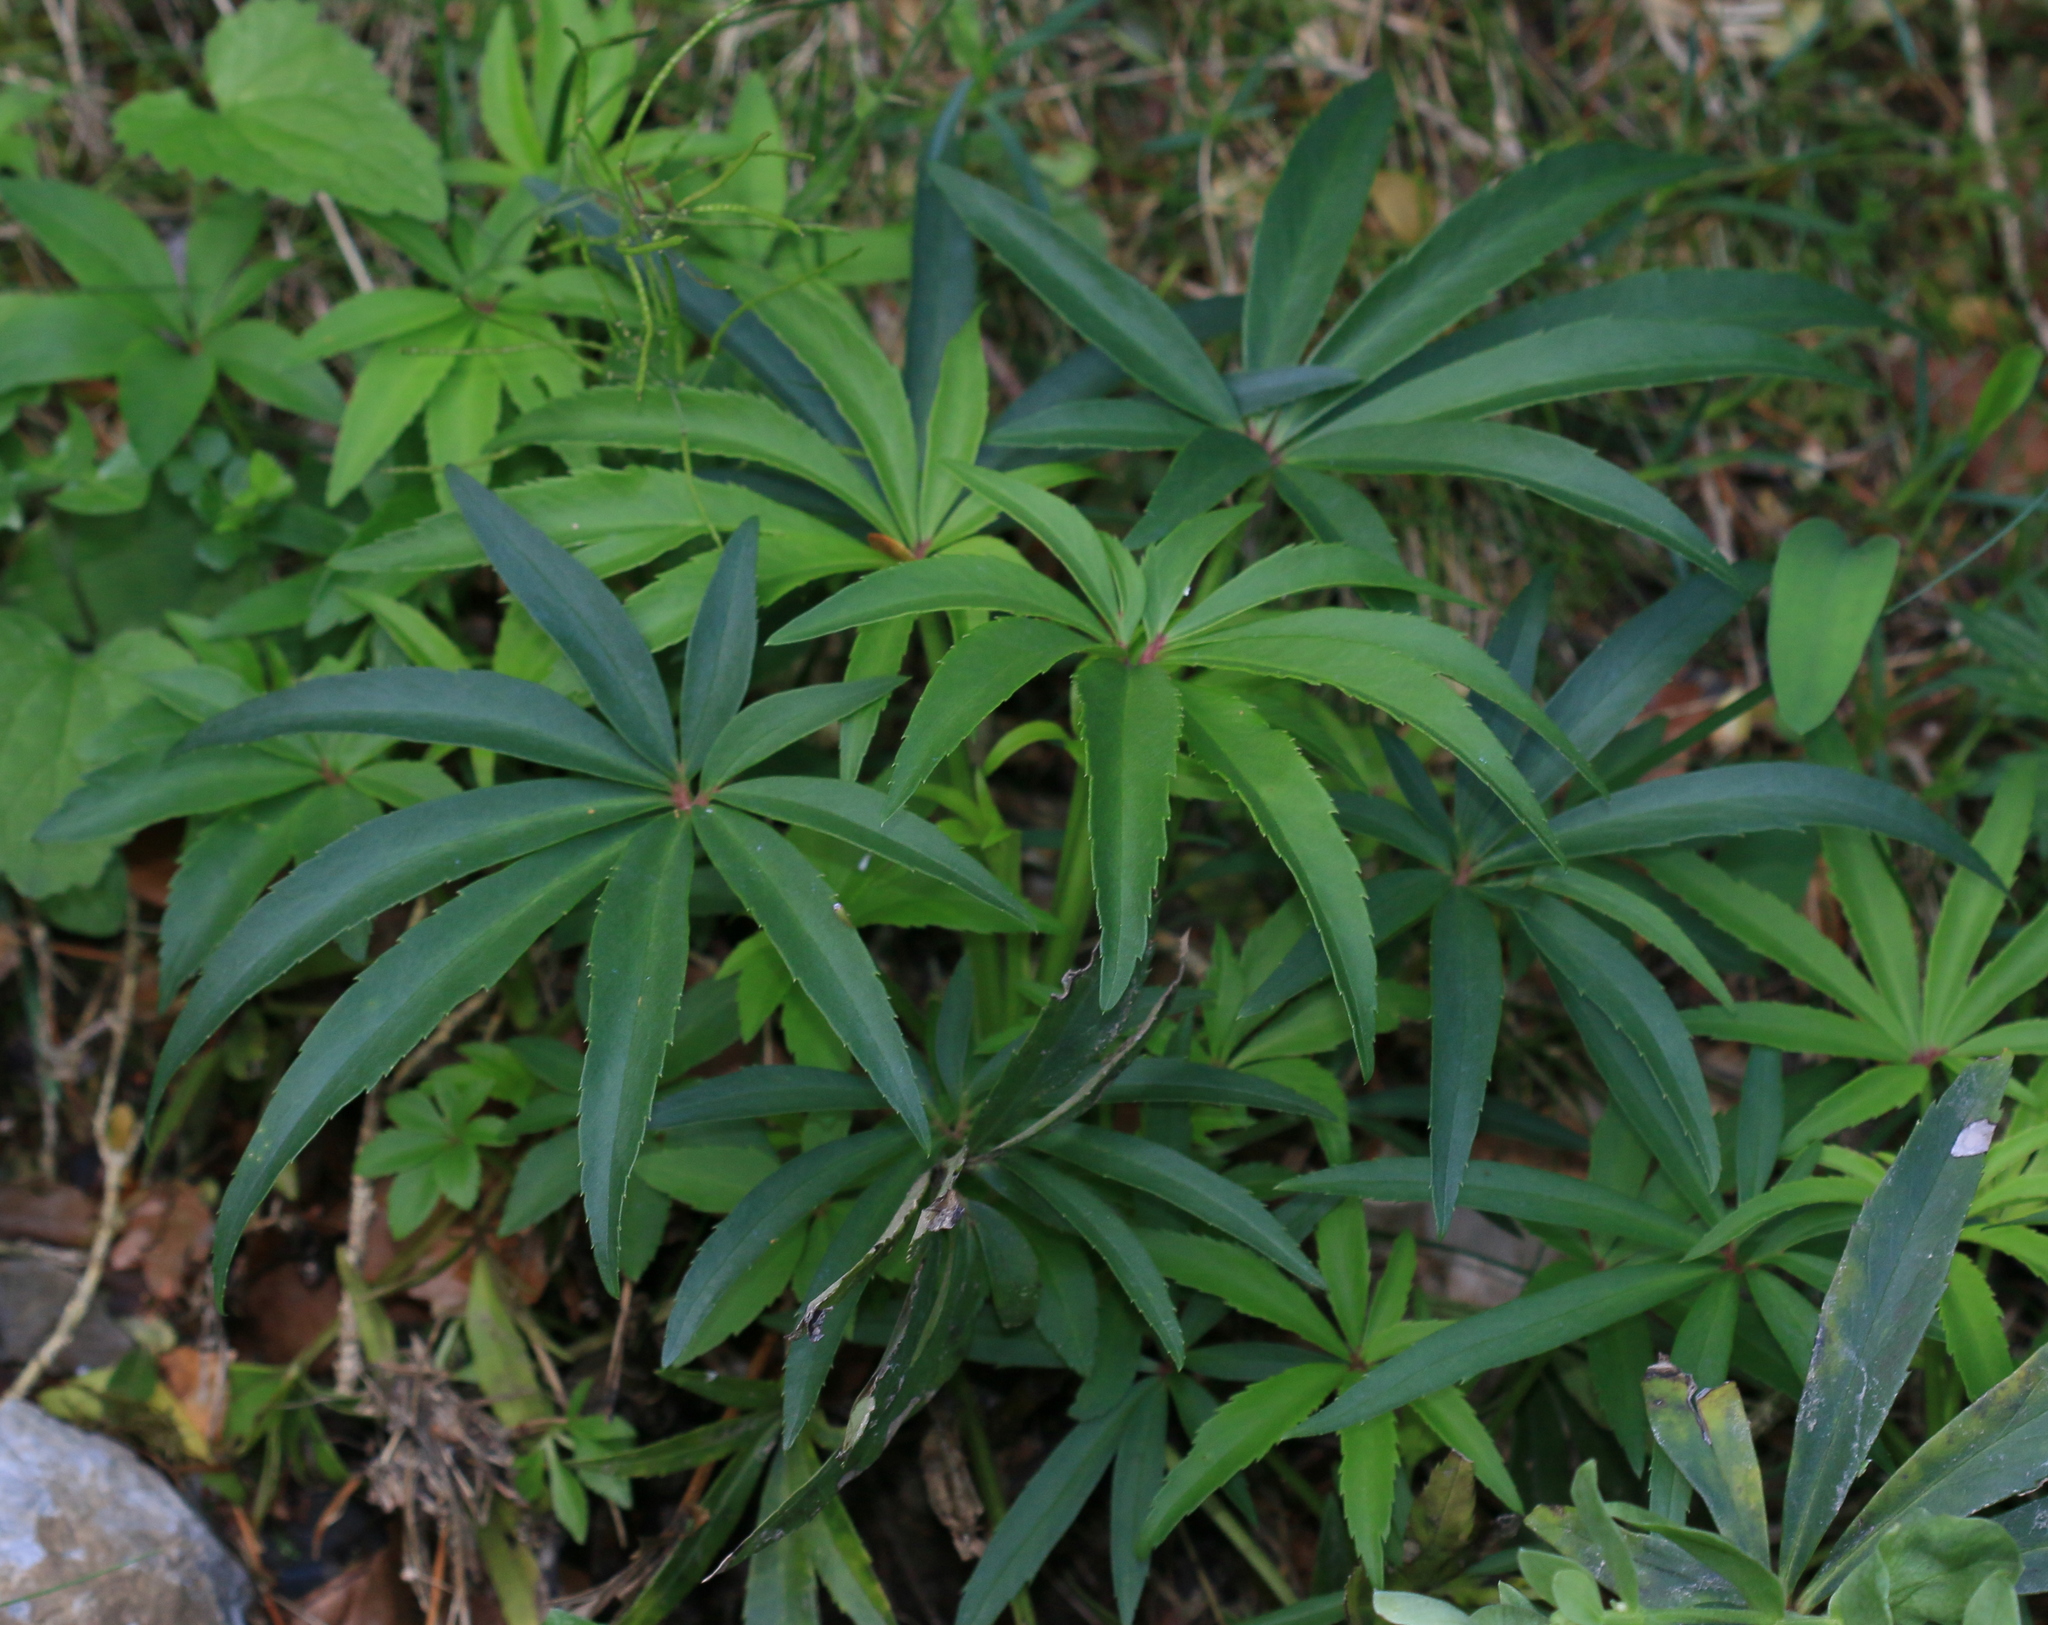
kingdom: Plantae
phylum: Tracheophyta
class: Magnoliopsida
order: Ranunculales
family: Ranunculaceae
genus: Helleborus
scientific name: Helleborus foetidus
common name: Stinking hellebore
